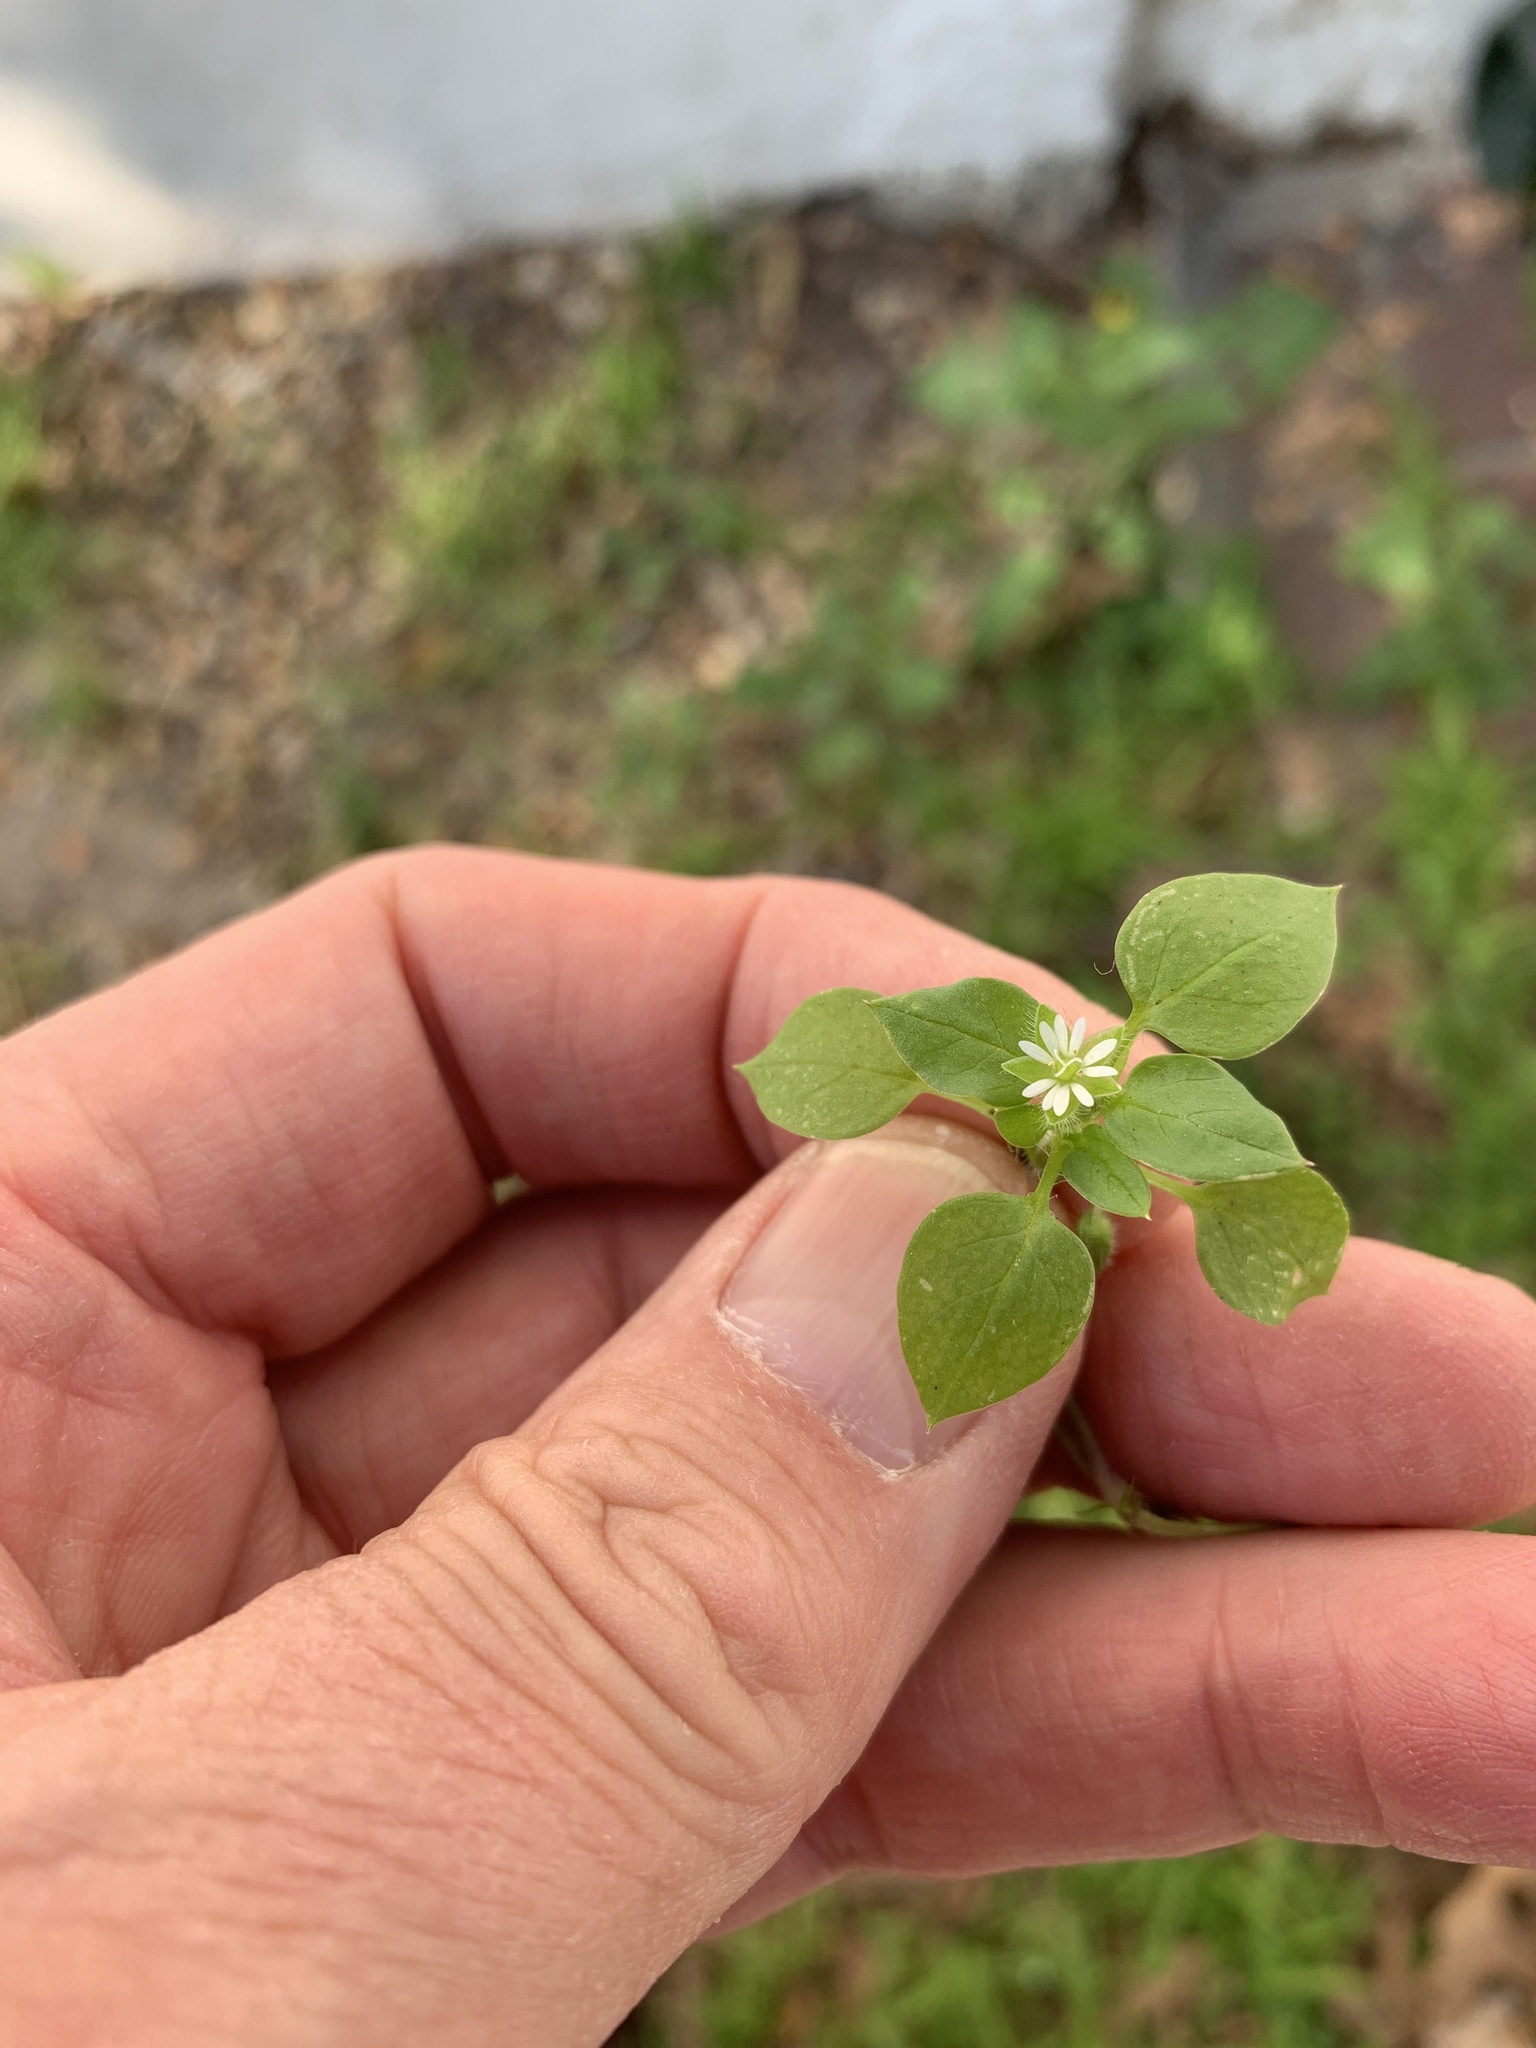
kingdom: Plantae
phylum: Tracheophyta
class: Magnoliopsida
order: Caryophyllales
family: Caryophyllaceae
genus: Stellaria
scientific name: Stellaria media
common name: Common chickweed
